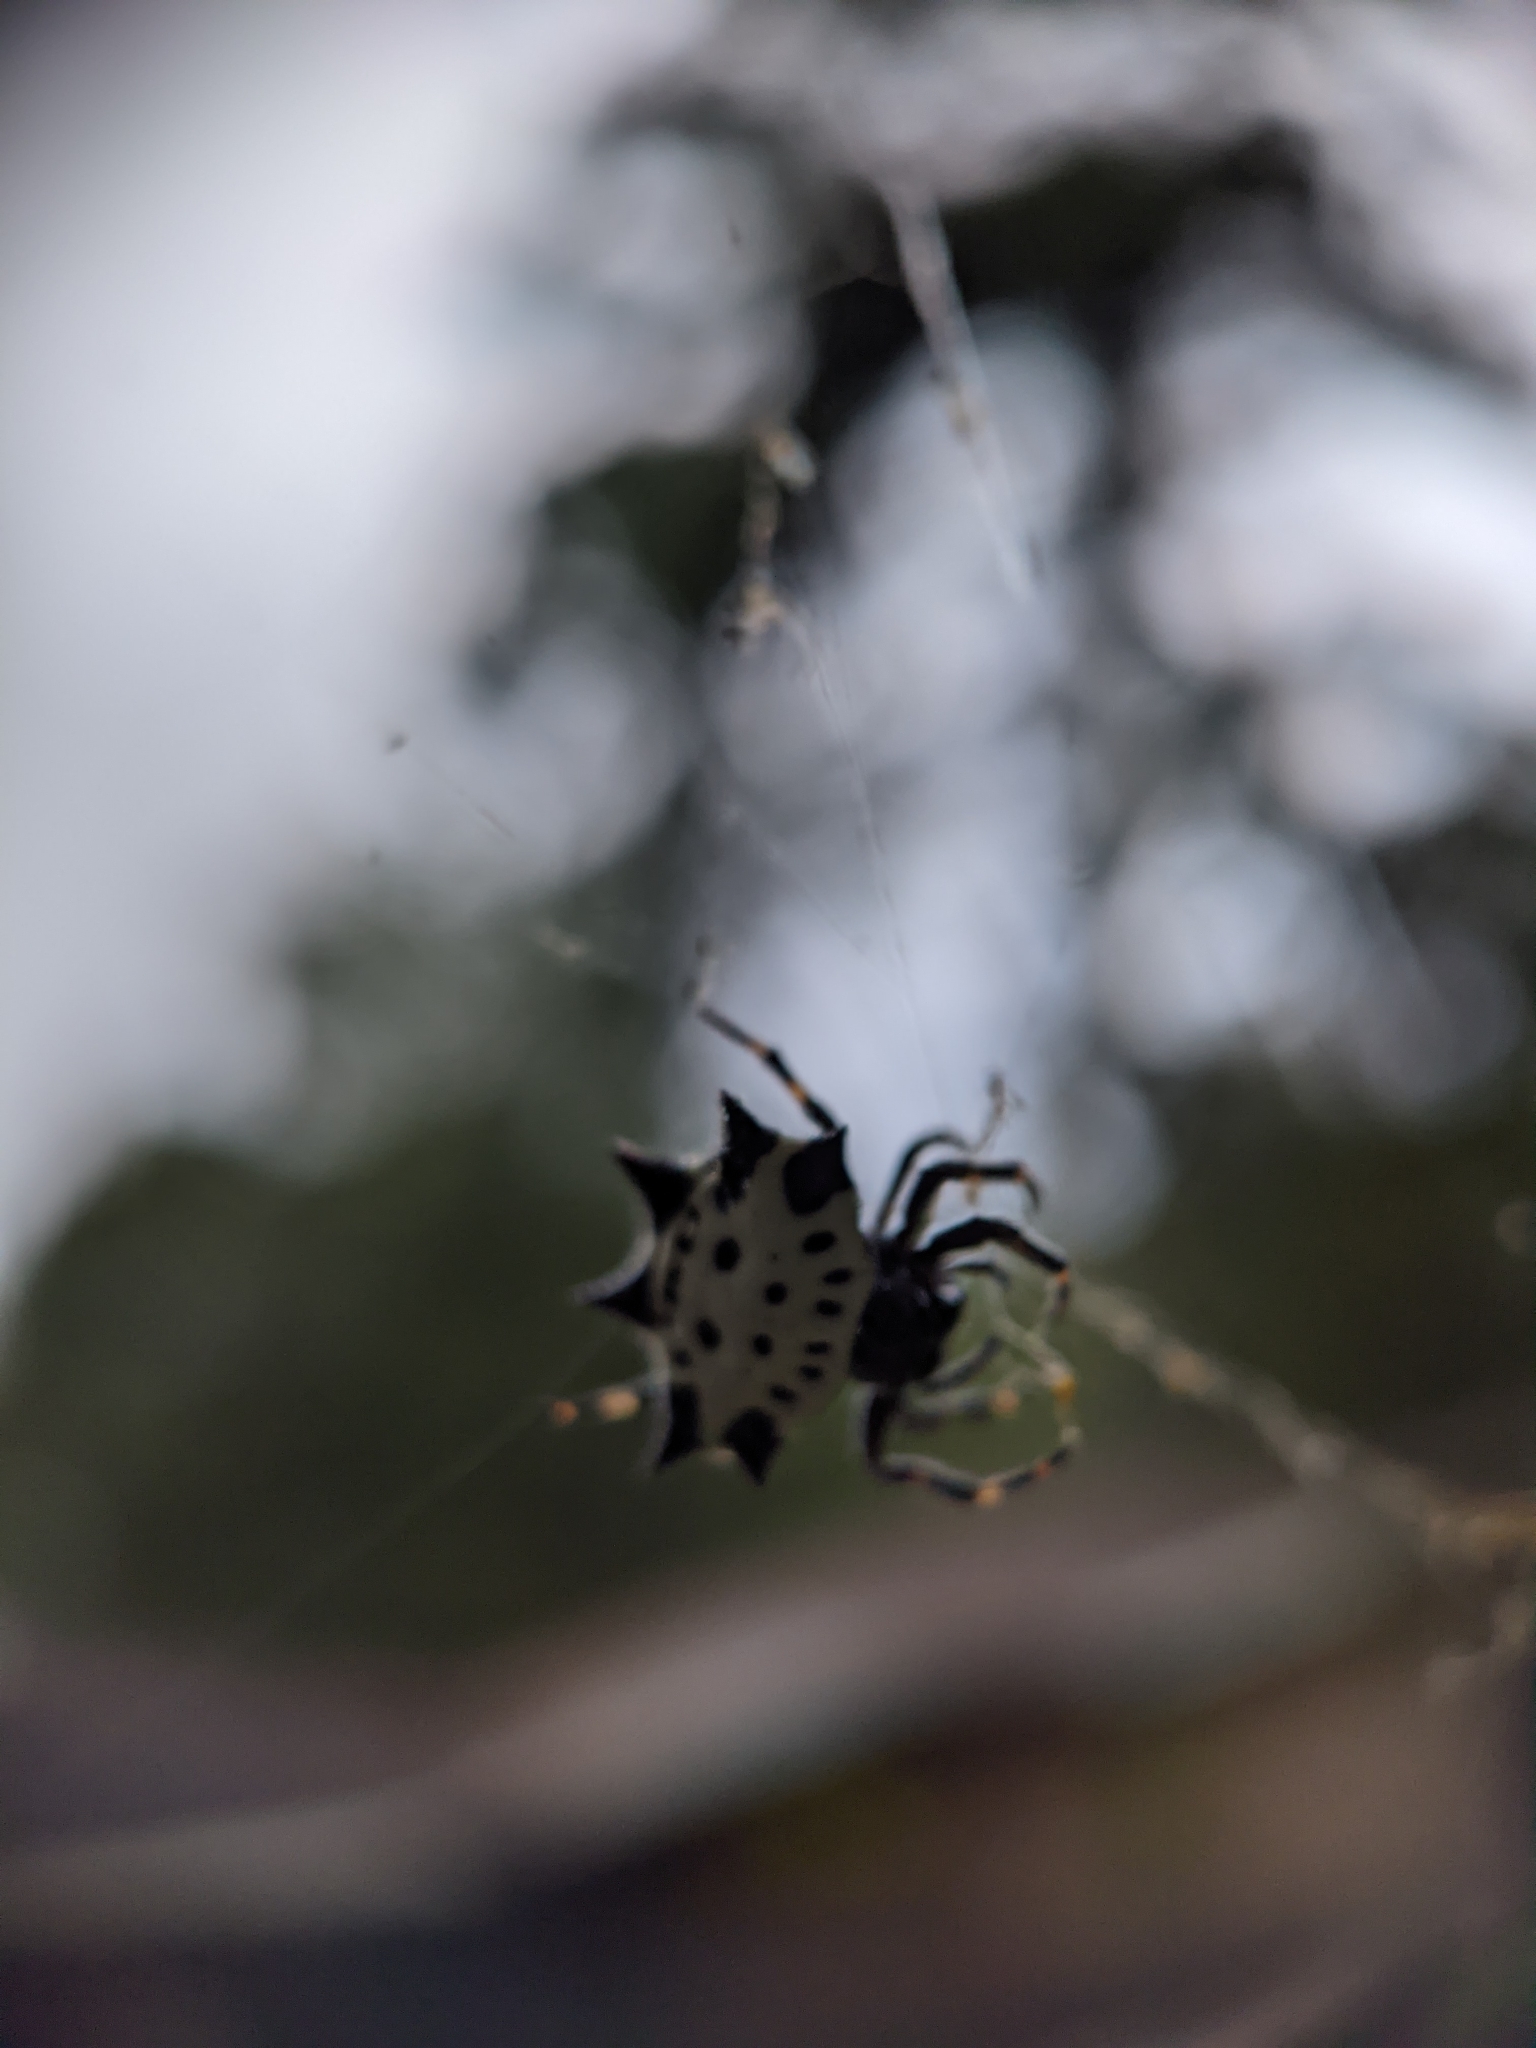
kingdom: Animalia
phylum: Arthropoda
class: Arachnida
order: Araneae
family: Araneidae
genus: Gasteracantha
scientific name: Gasteracantha cancriformis
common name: Orb weavers
